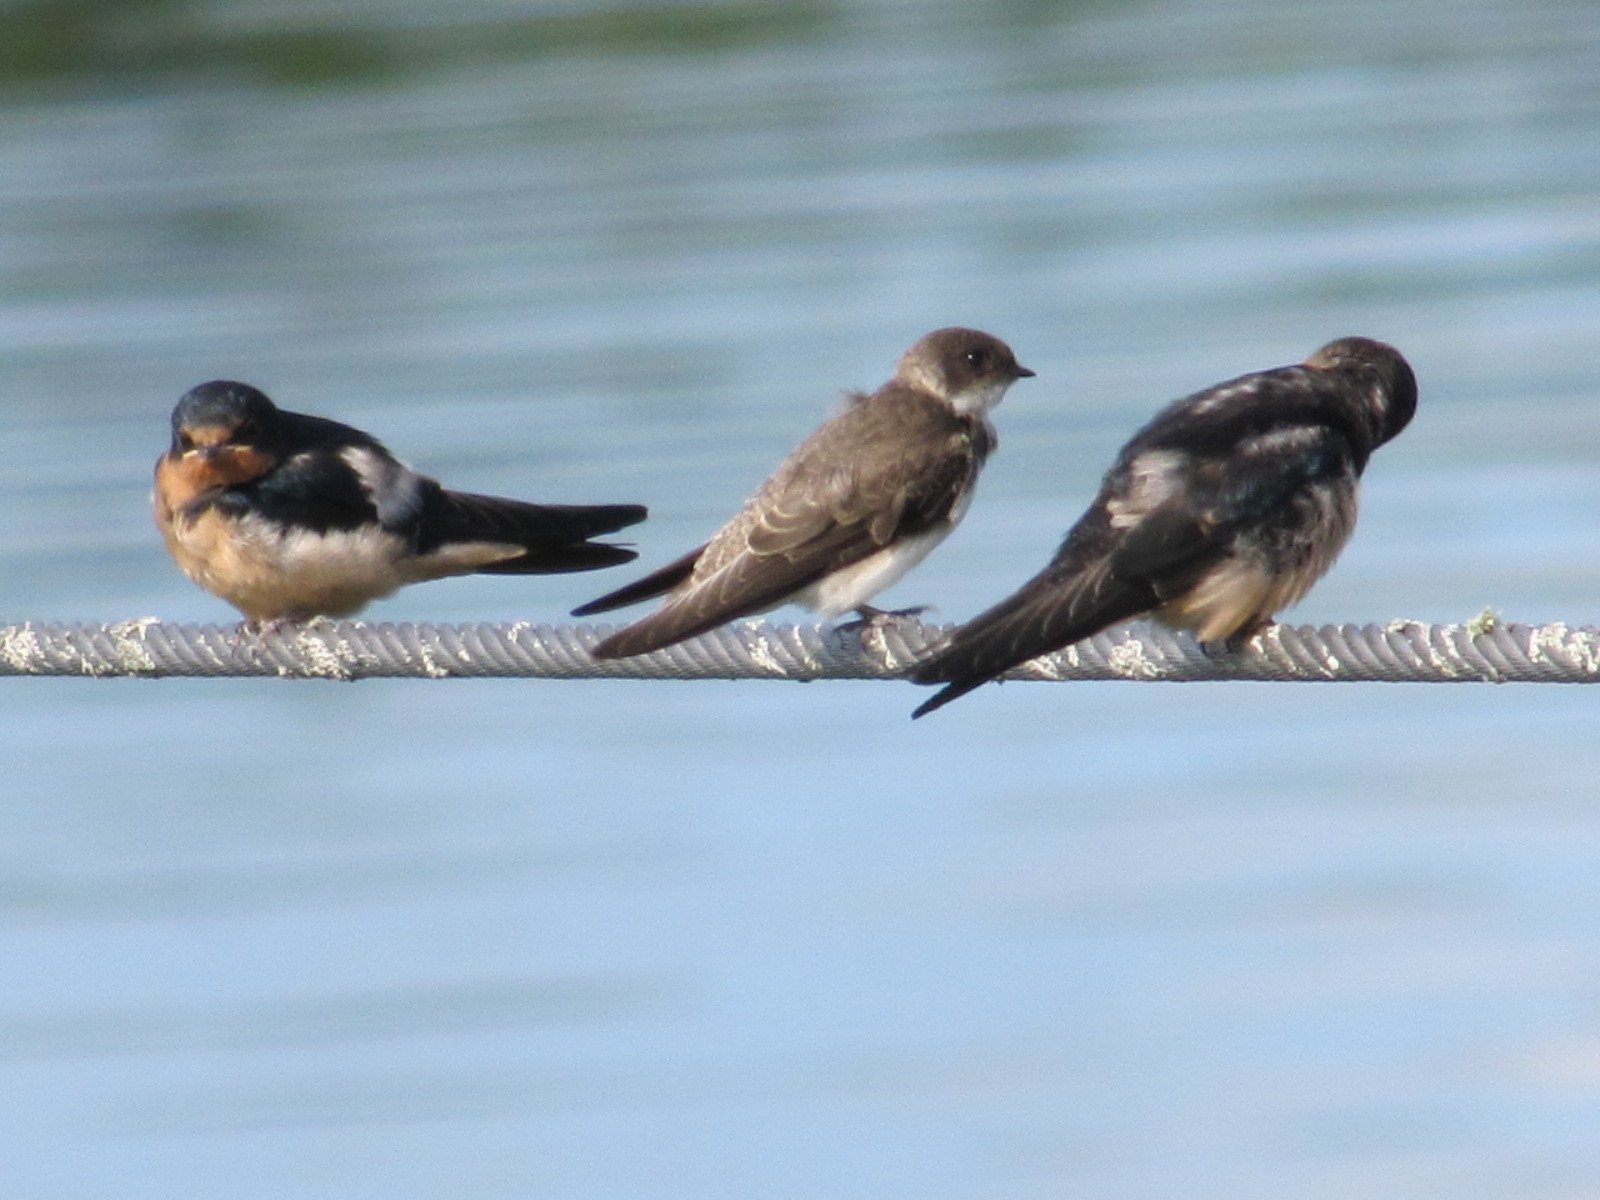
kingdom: Animalia
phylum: Chordata
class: Aves
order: Passeriformes
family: Hirundinidae
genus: Riparia
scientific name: Riparia riparia
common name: Sand martin
